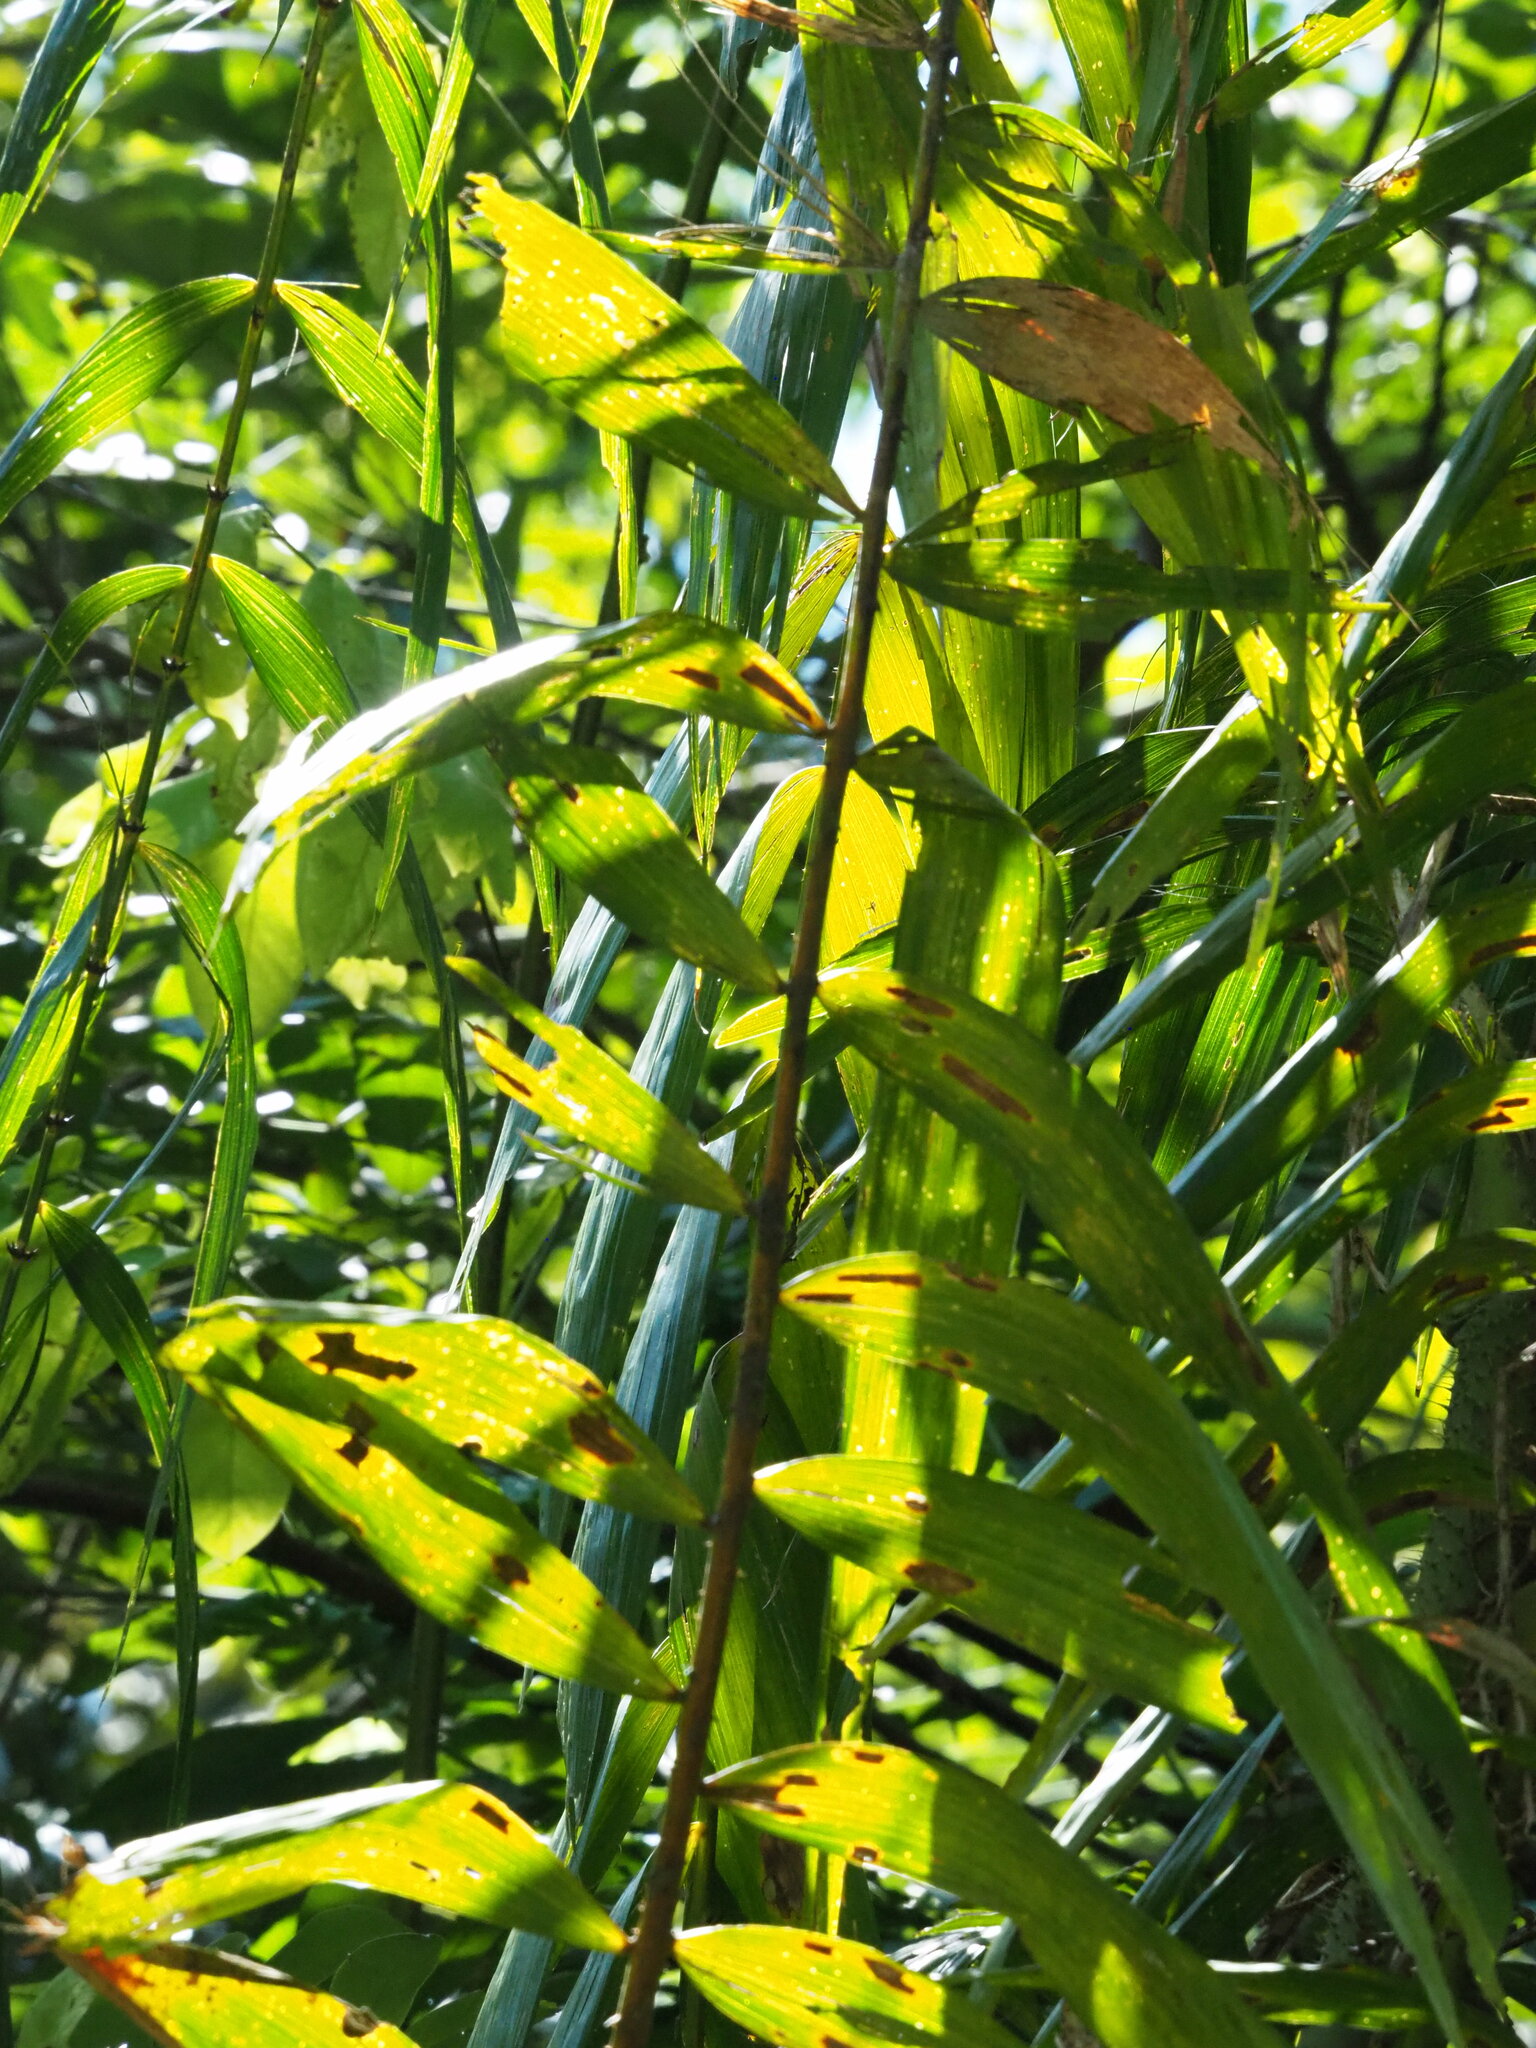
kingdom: Plantae
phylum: Tracheophyta
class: Liliopsida
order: Arecales
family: Arecaceae
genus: Calamus
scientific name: Calamus formosanus
